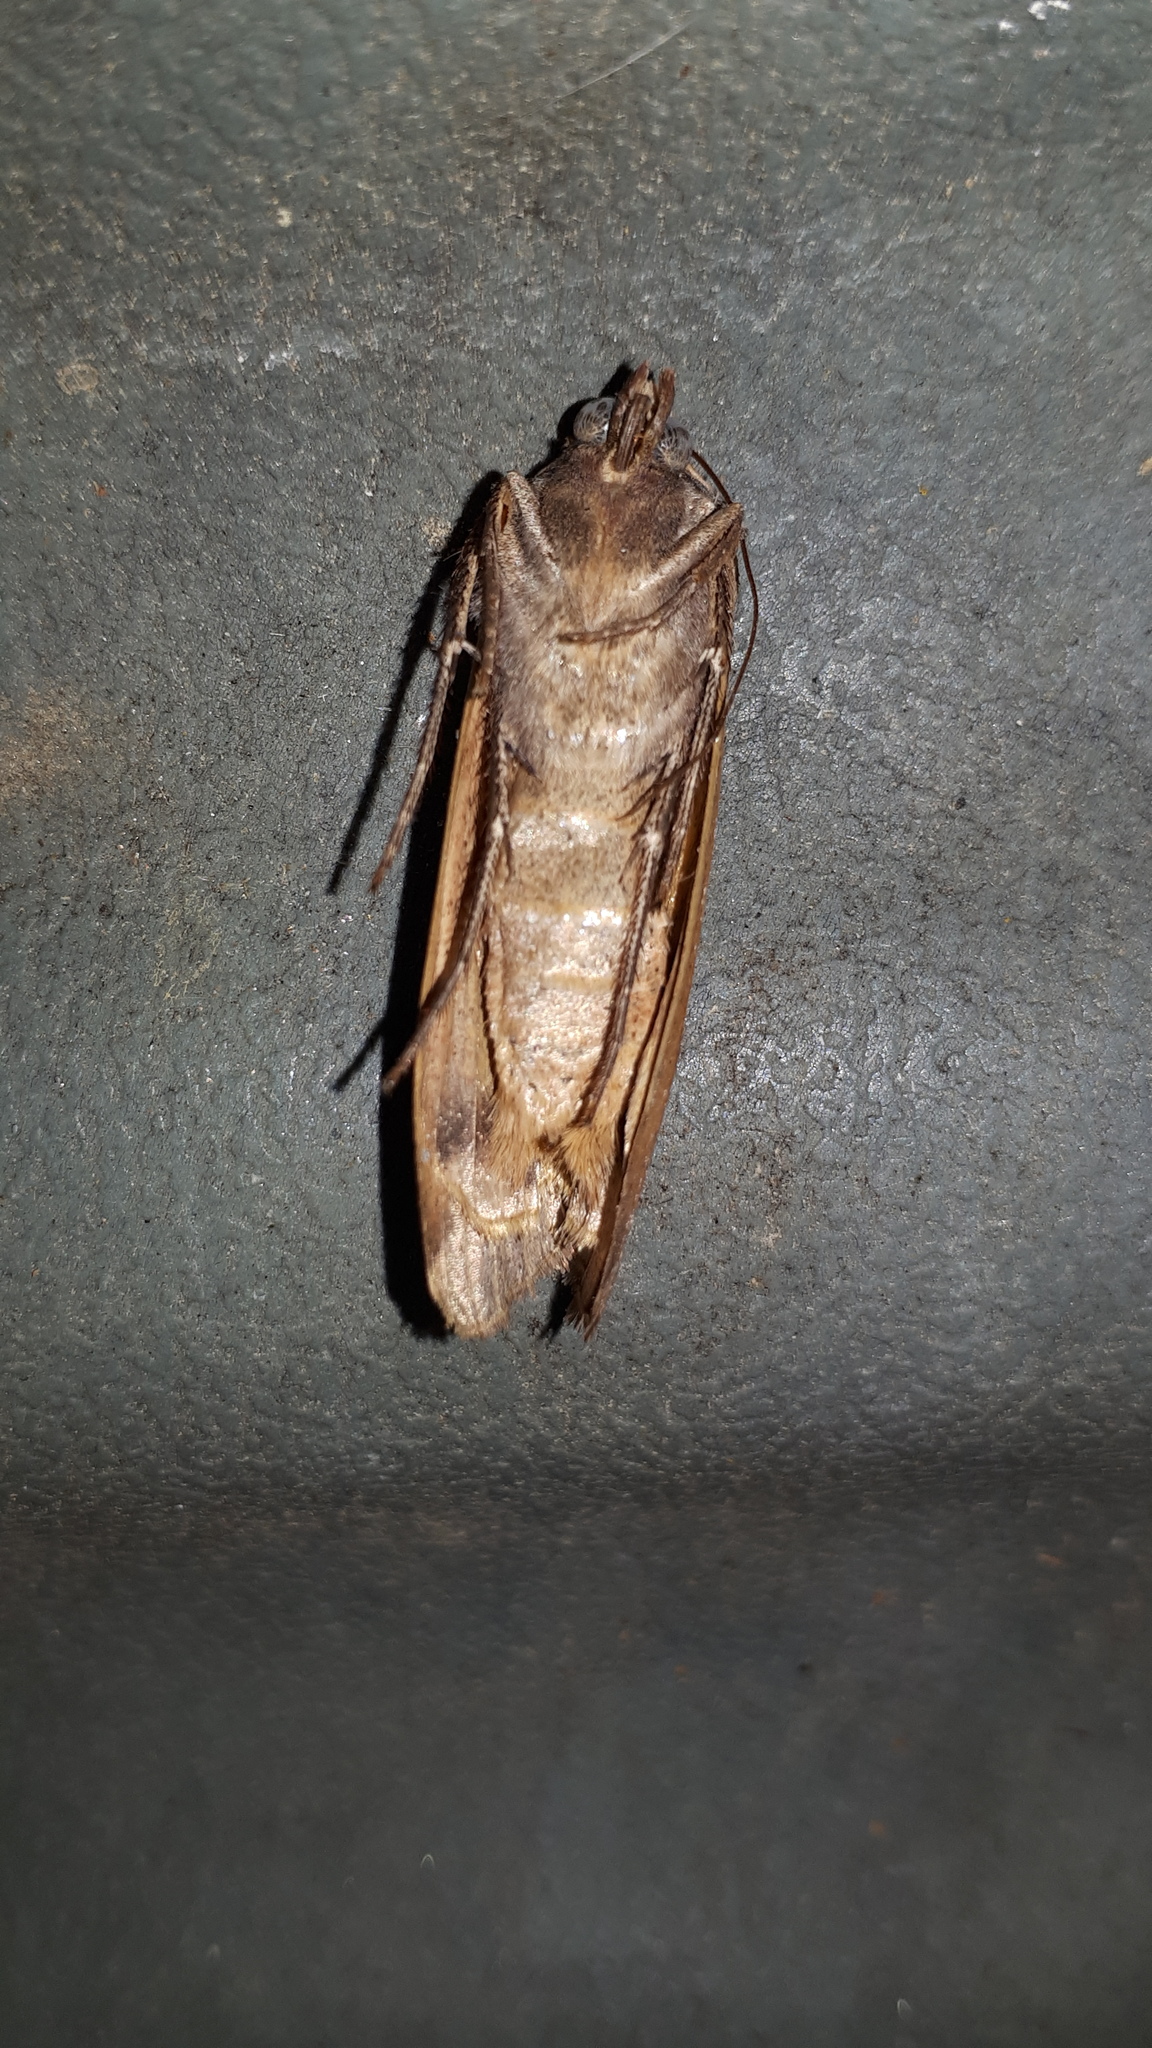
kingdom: Animalia
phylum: Arthropoda
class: Insecta
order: Lepidoptera
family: Noctuidae
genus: Noctua
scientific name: Noctua pronuba
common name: Large yellow underwing
